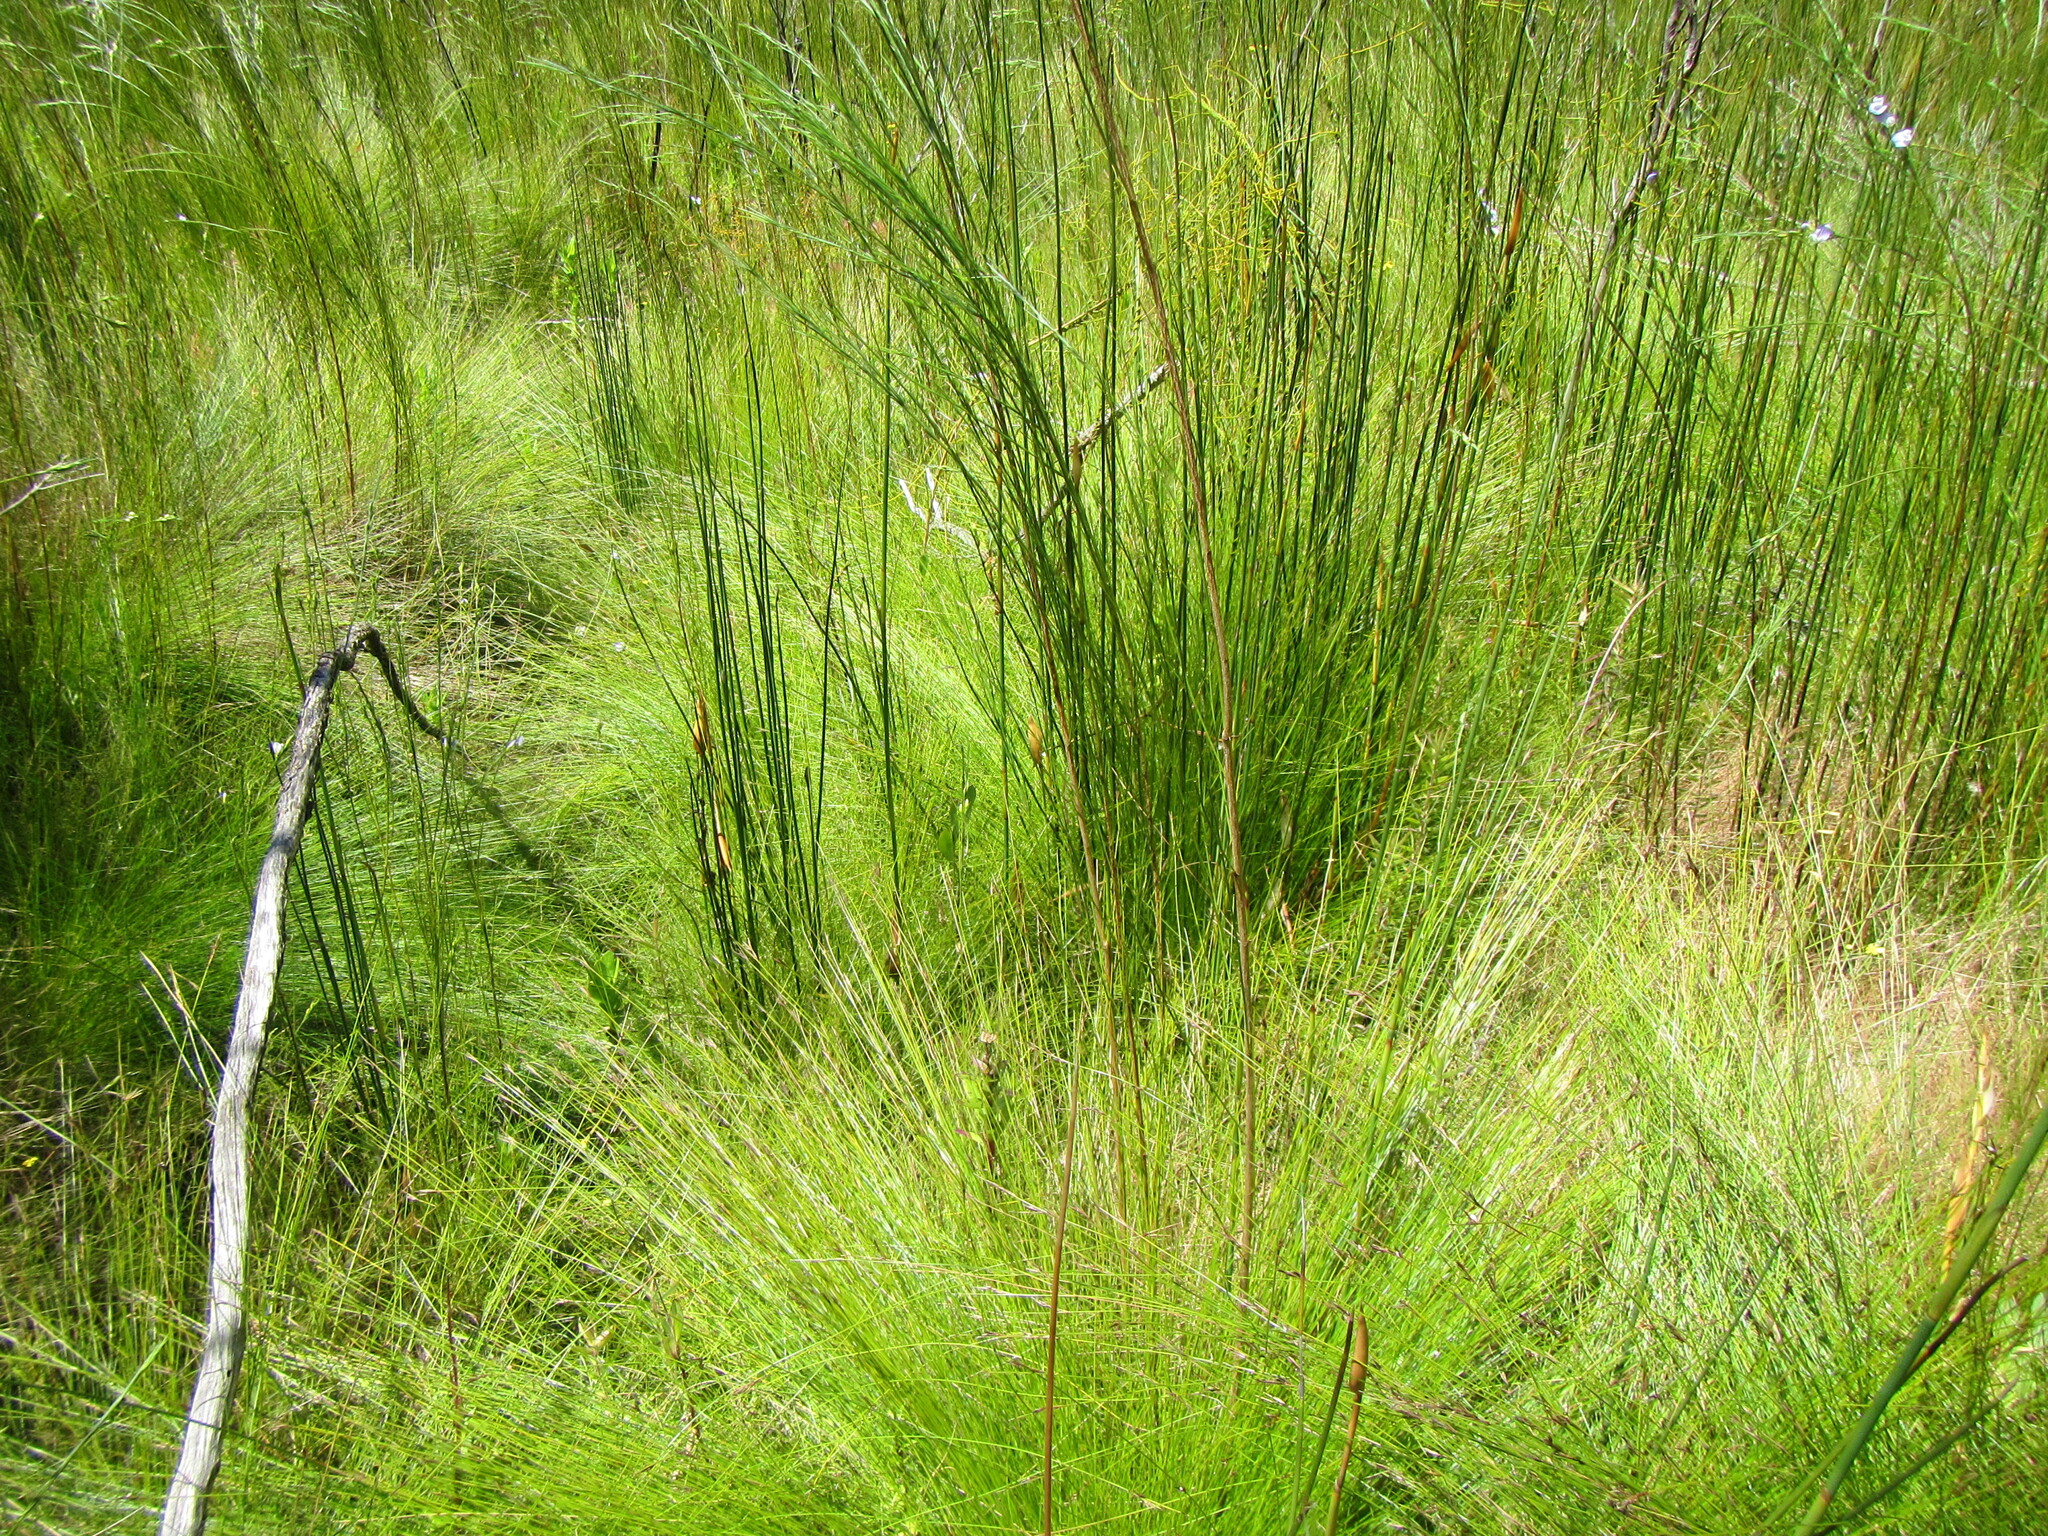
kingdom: Plantae
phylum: Tracheophyta
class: Liliopsida
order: Poales
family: Cyperaceae
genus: Schoenus
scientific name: Schoenus gracillimus
